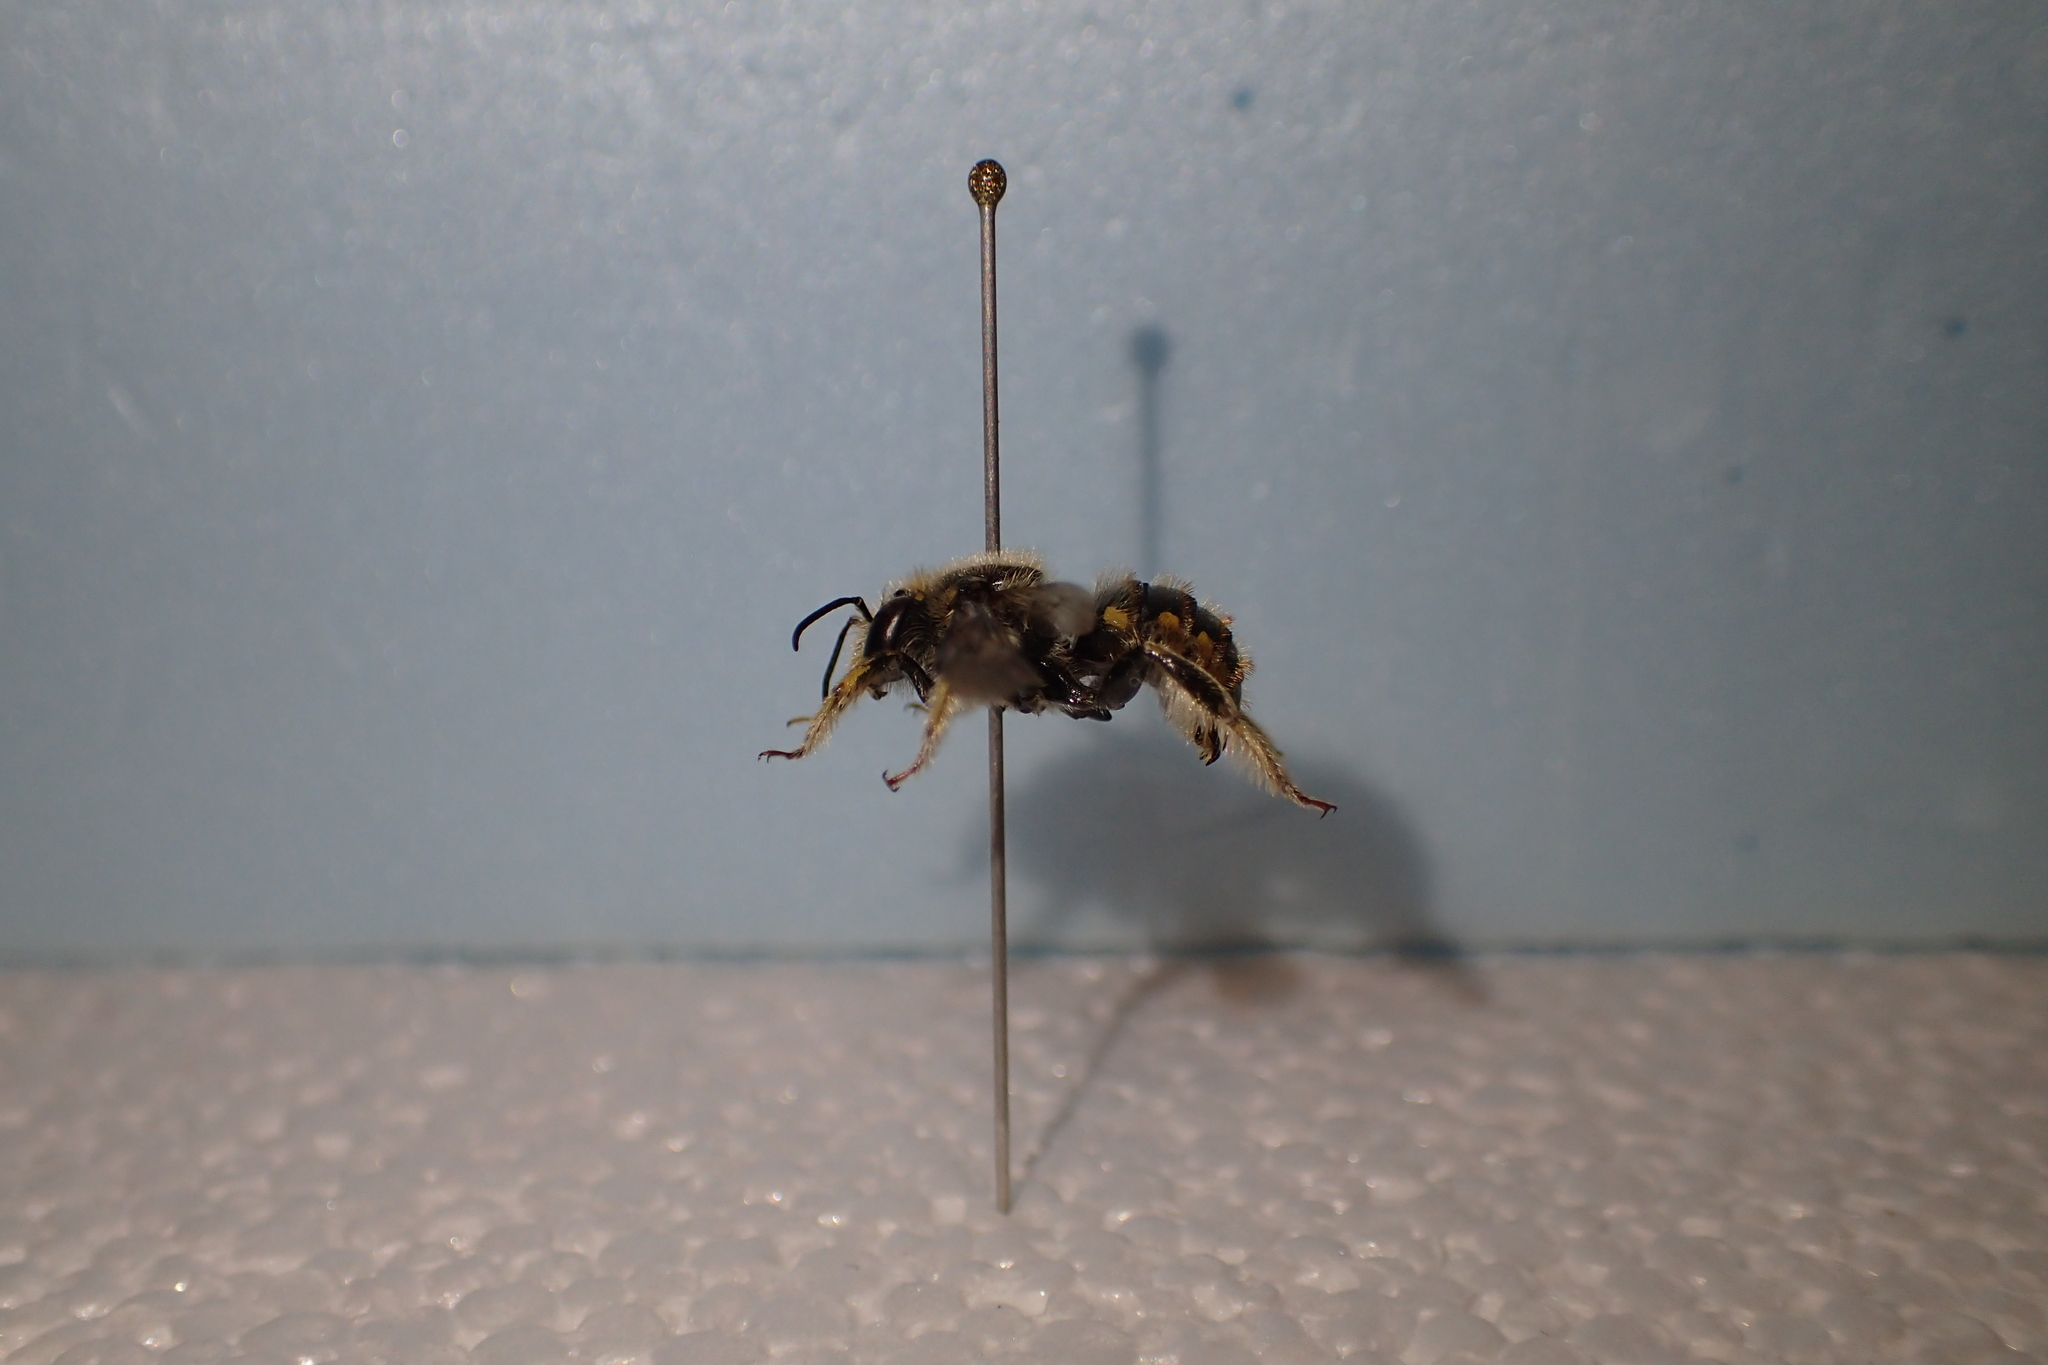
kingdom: Animalia
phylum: Arthropoda
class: Insecta
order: Hymenoptera
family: Megachilidae
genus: Anthidium
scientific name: Anthidium manicatum
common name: Wool carder bee
